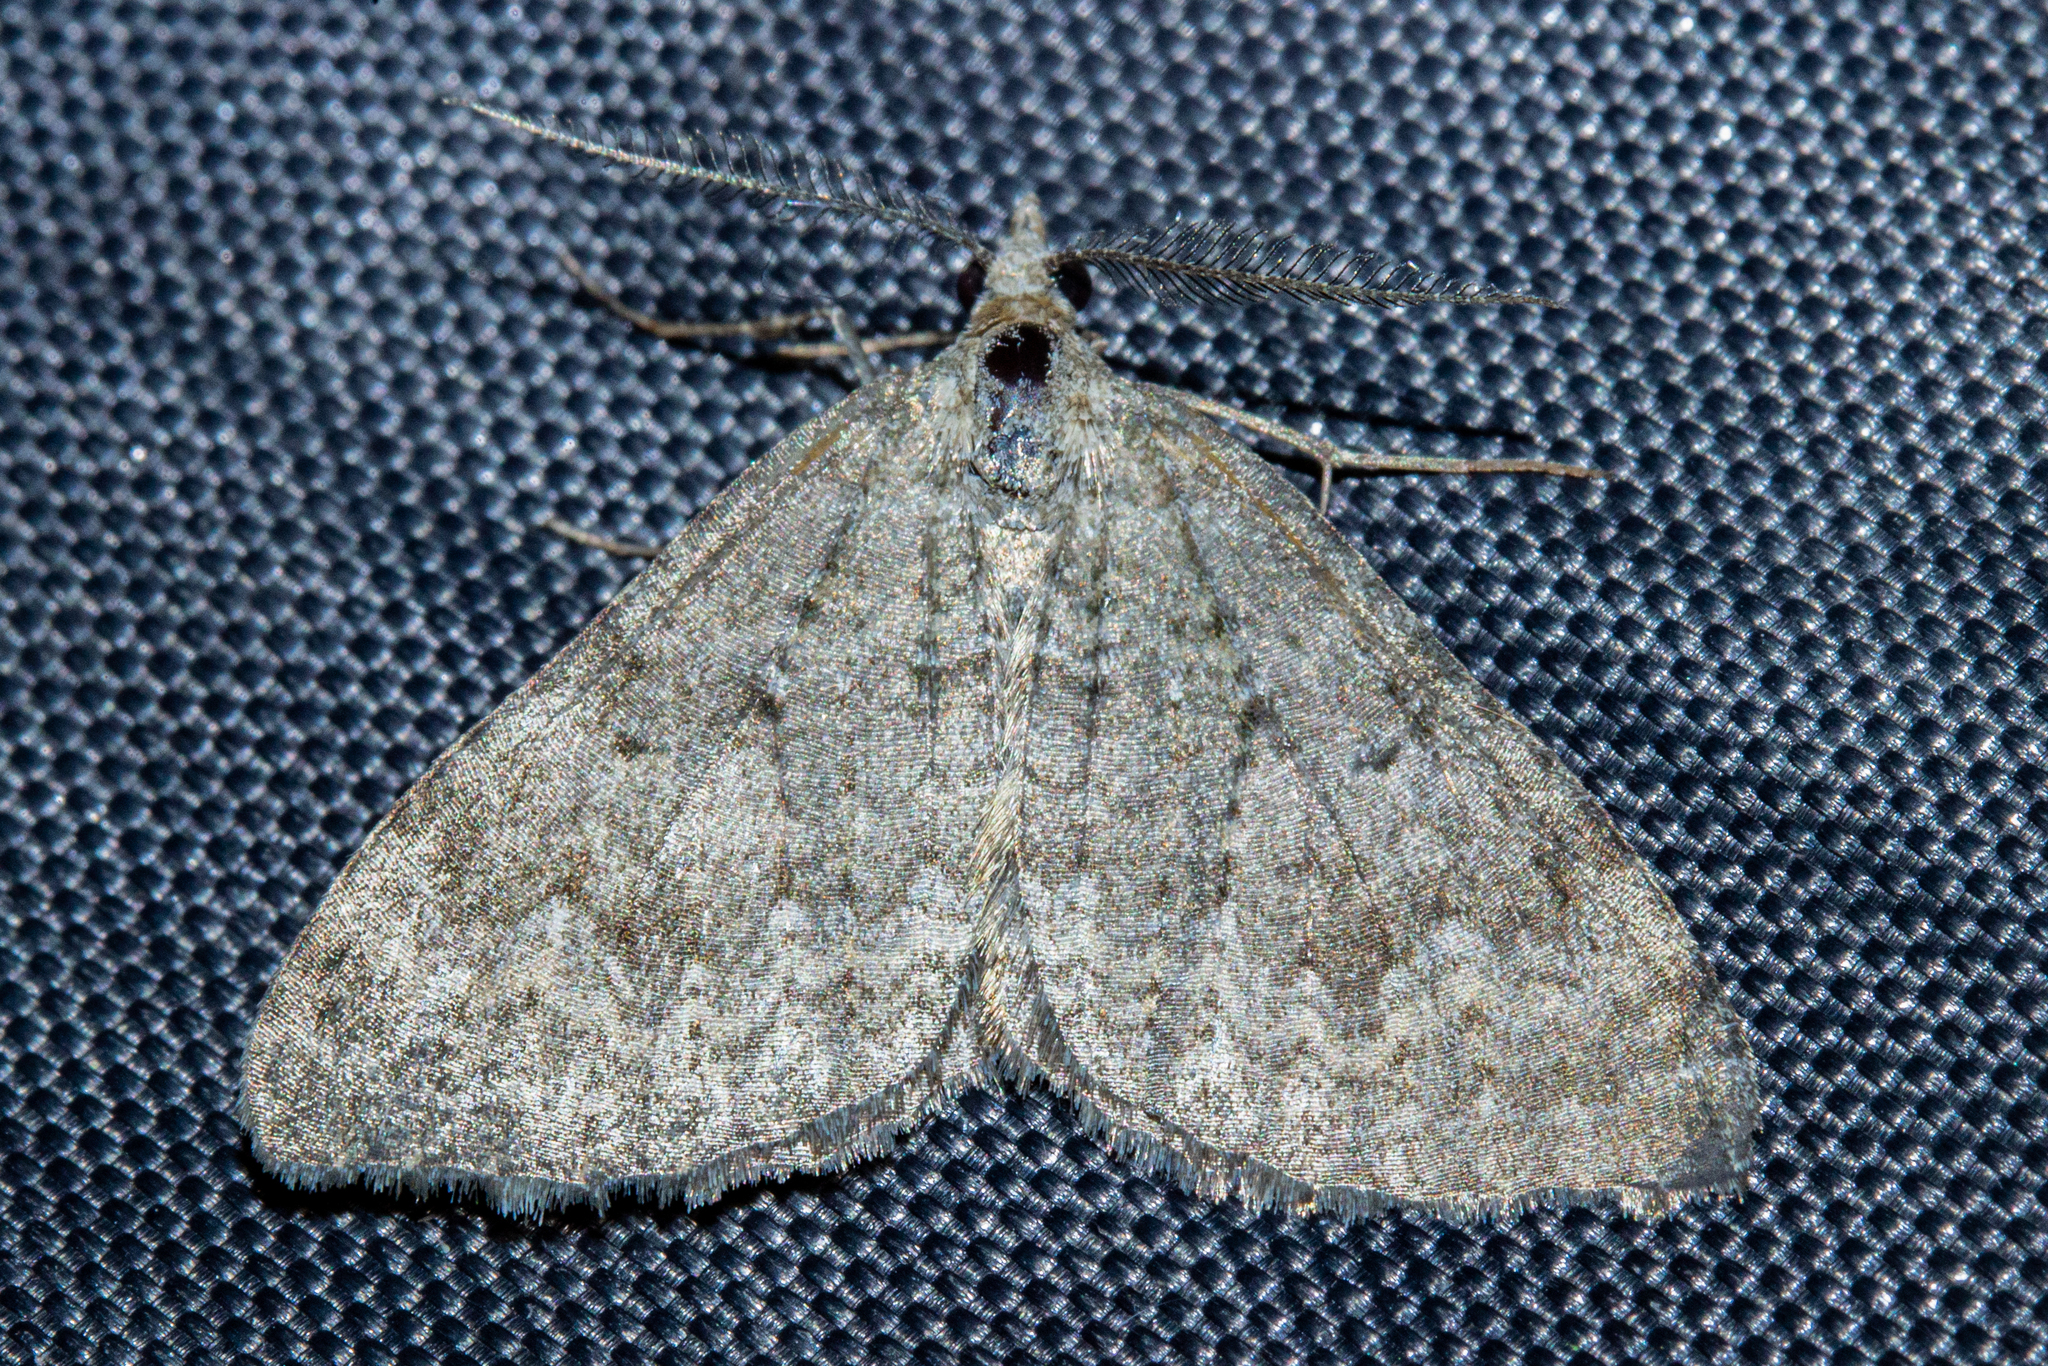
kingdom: Animalia
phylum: Arthropoda
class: Insecta
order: Lepidoptera
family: Geometridae
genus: Helastia
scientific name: Helastia corcularia
